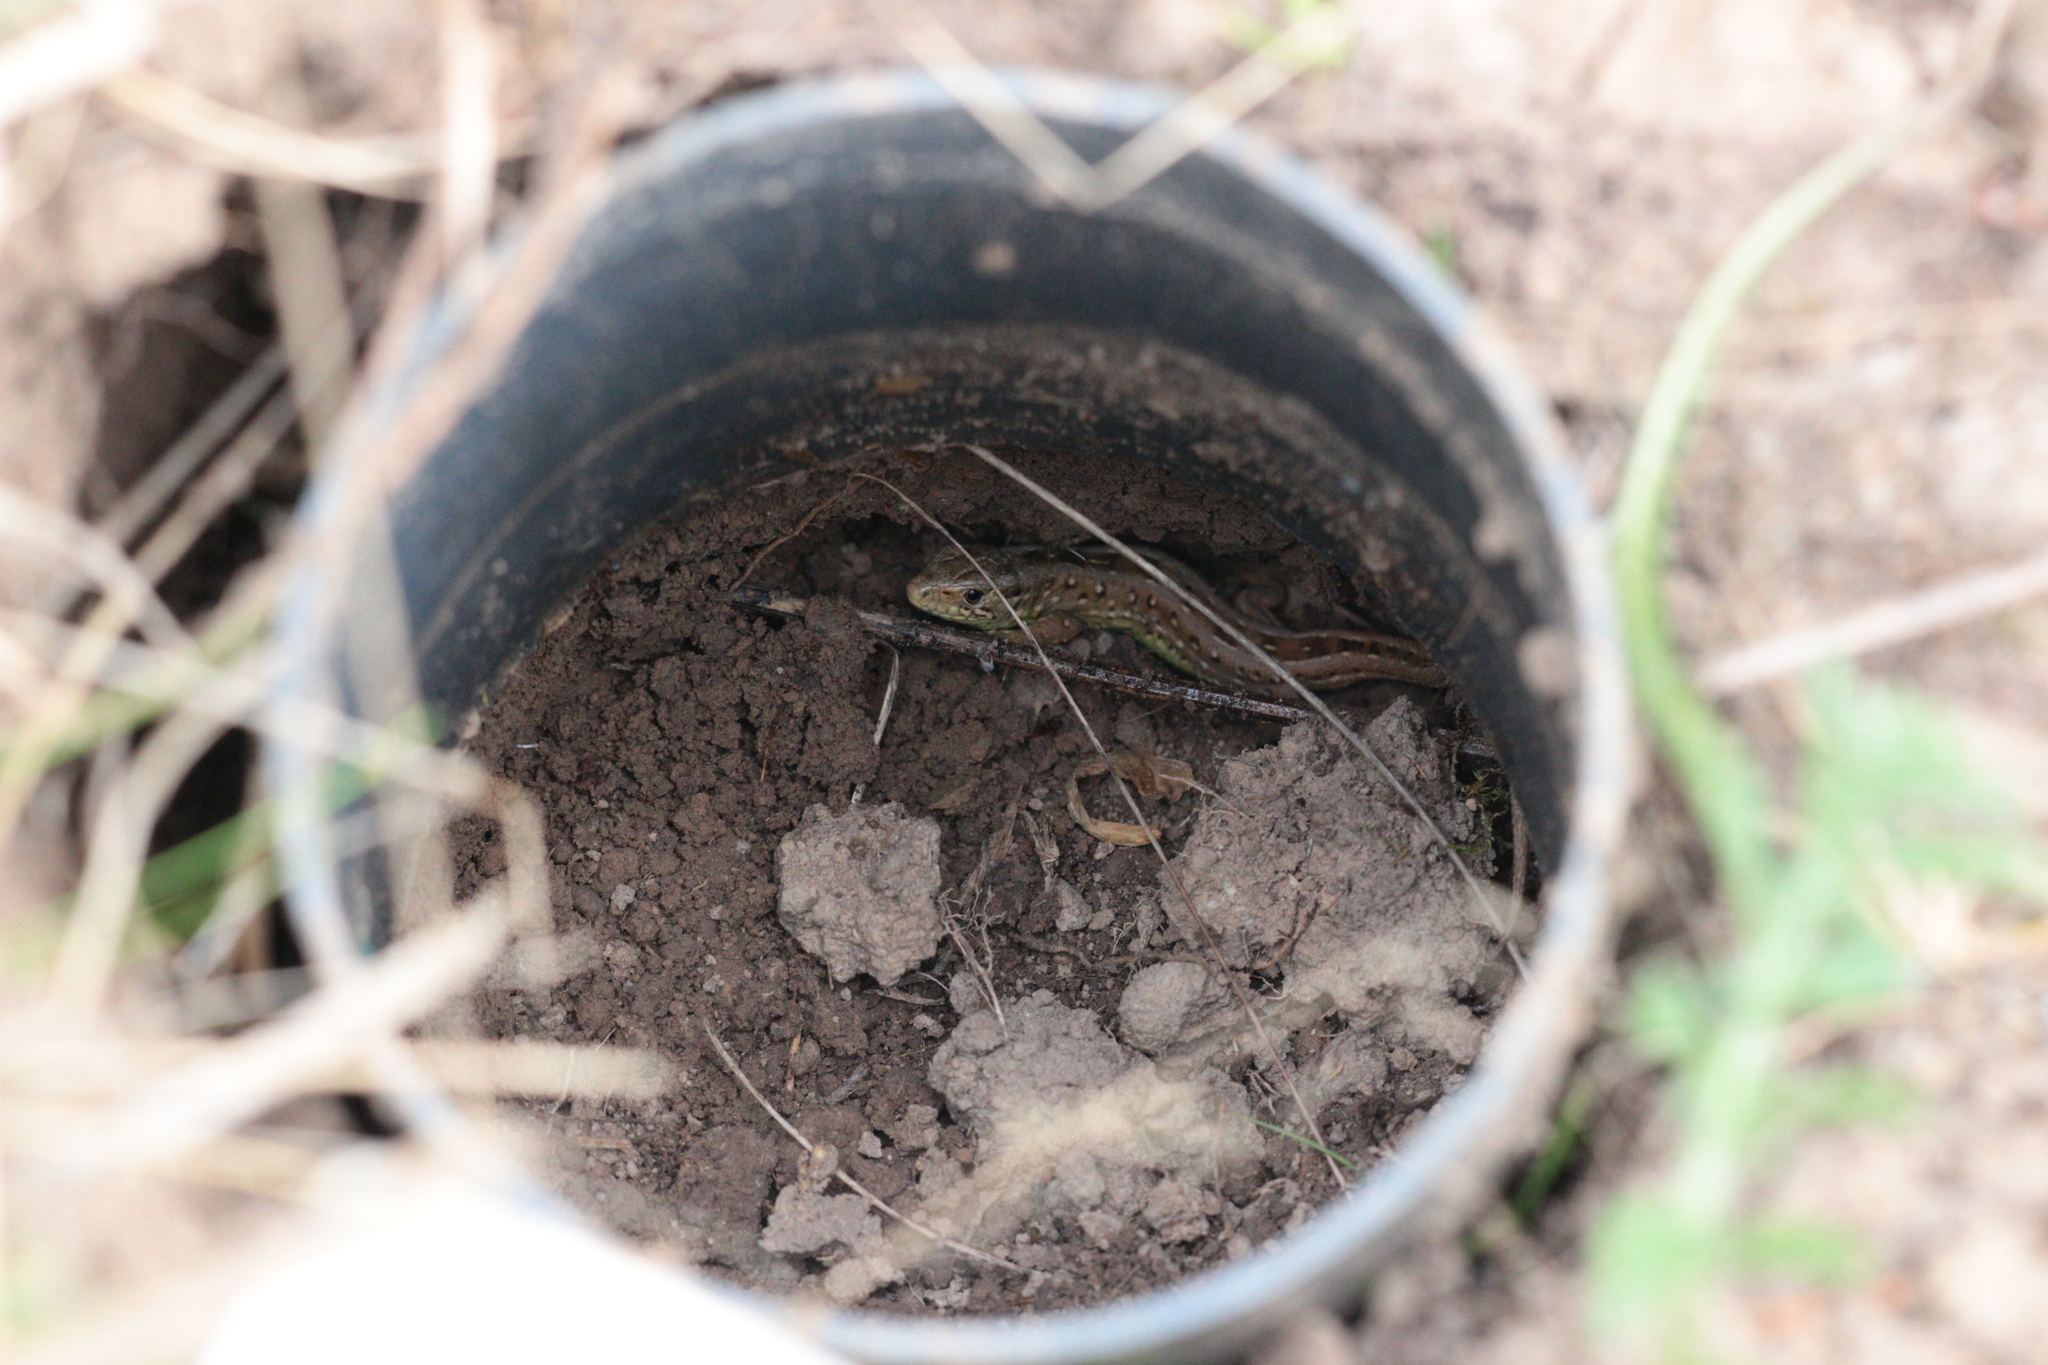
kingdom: Animalia
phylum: Chordata
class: Squamata
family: Lacertidae
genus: Lacerta
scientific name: Lacerta agilis
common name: Sand lizard
